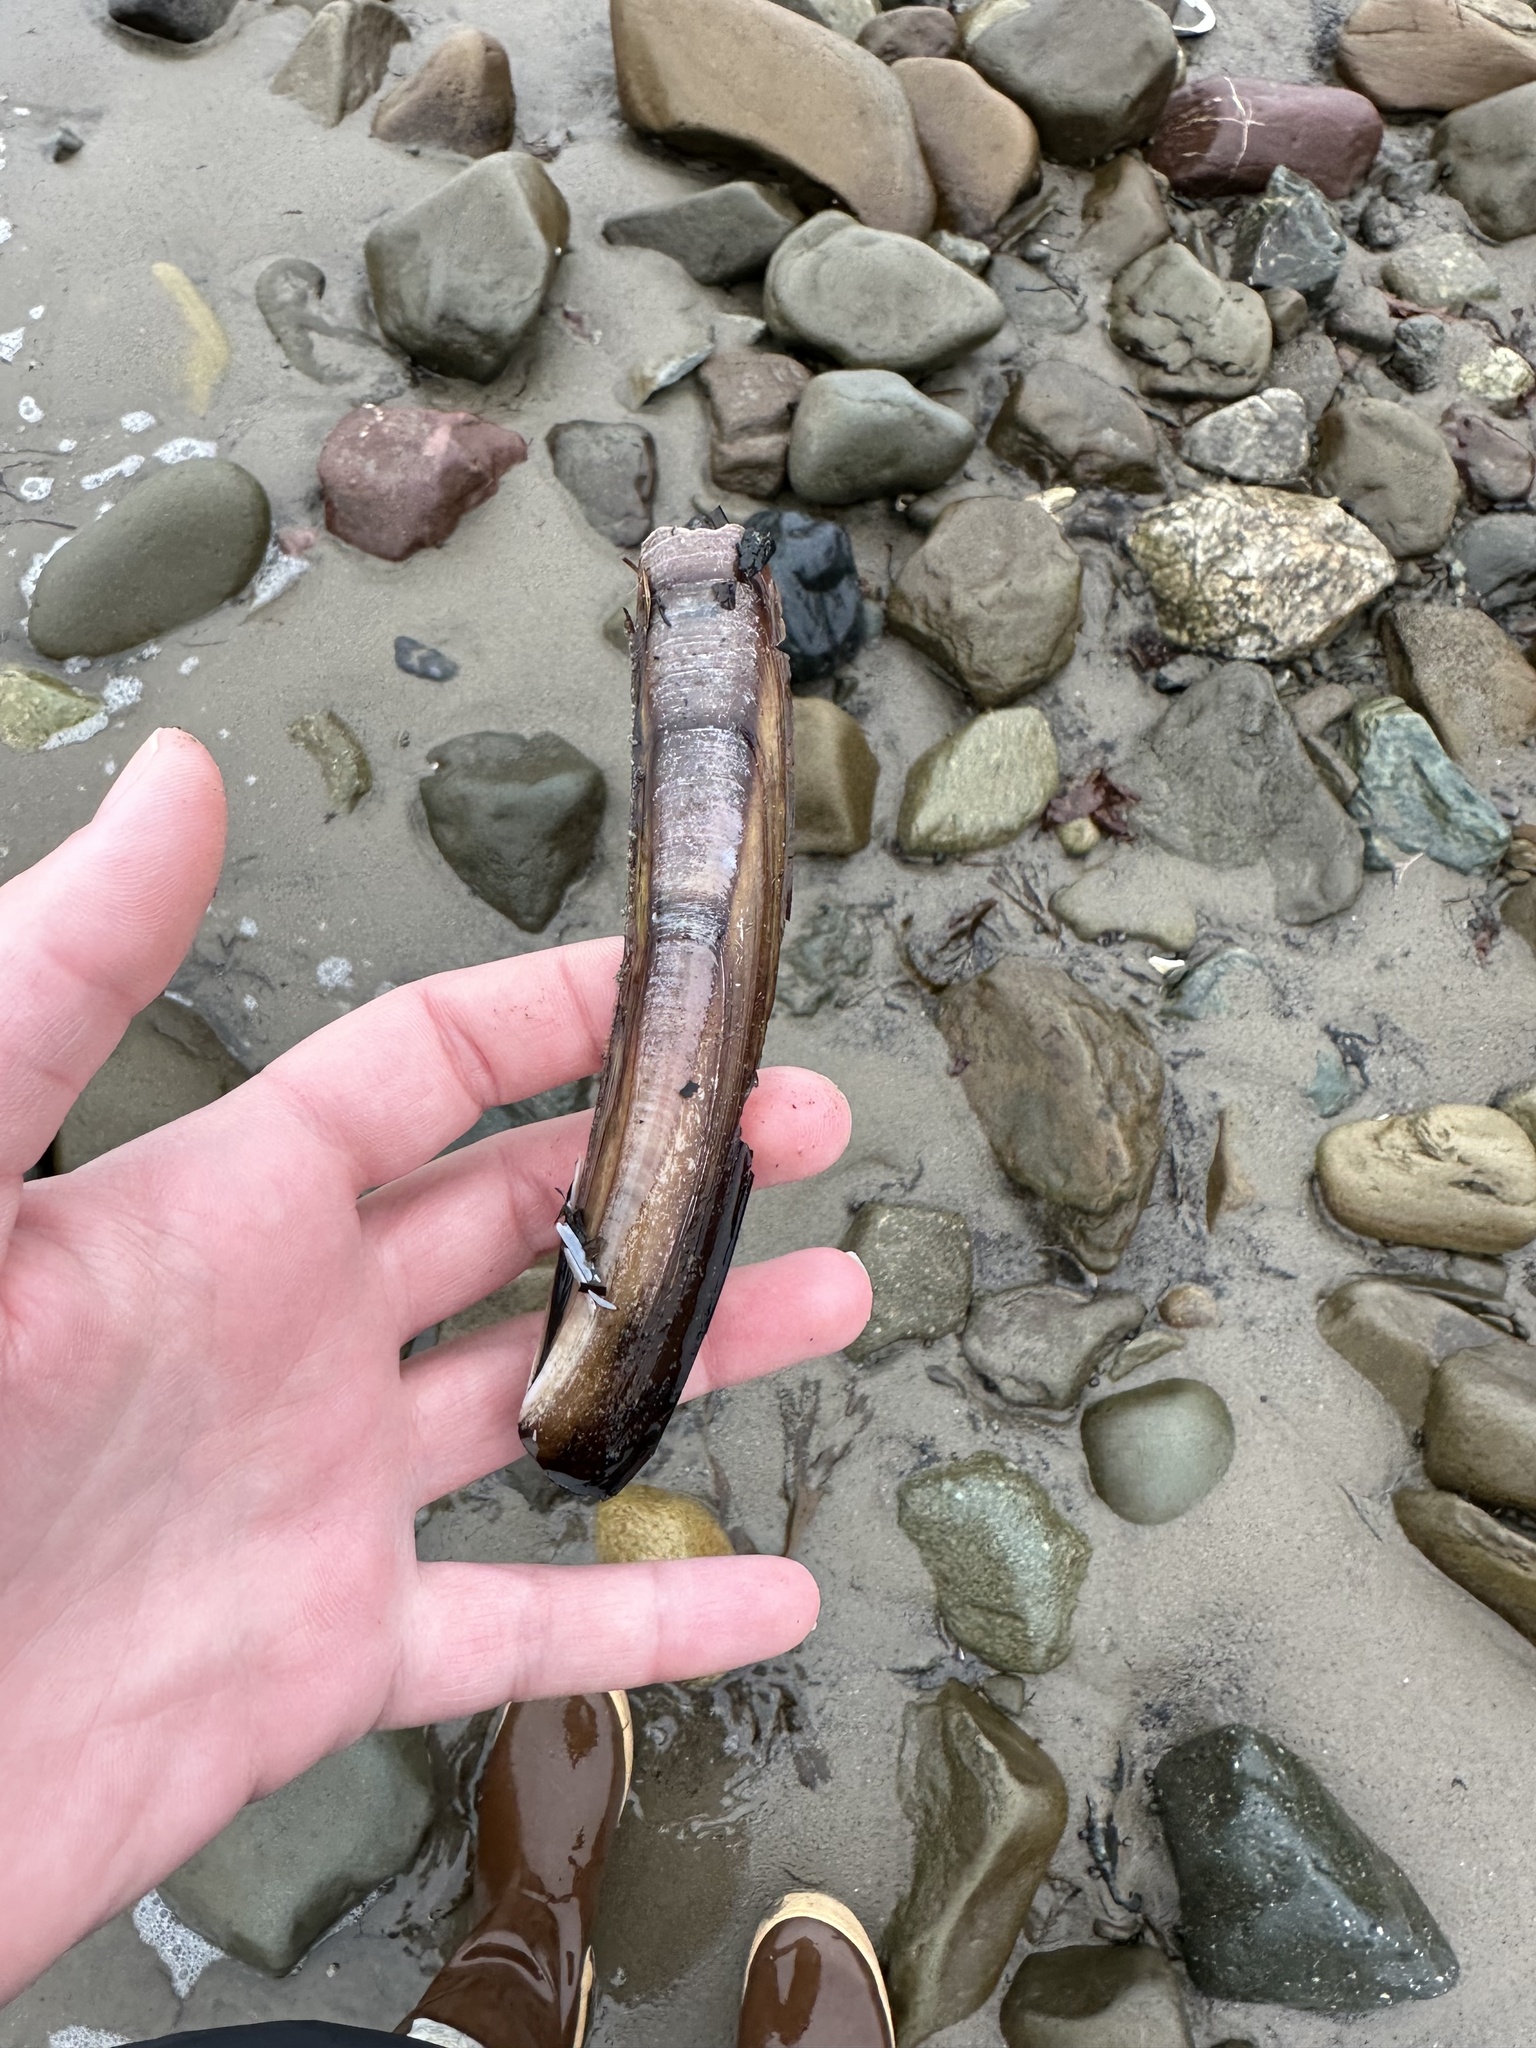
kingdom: Animalia
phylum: Mollusca
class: Bivalvia
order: Adapedonta
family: Pharidae
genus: Ensis
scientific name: Ensis leei
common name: American jack knife clam
